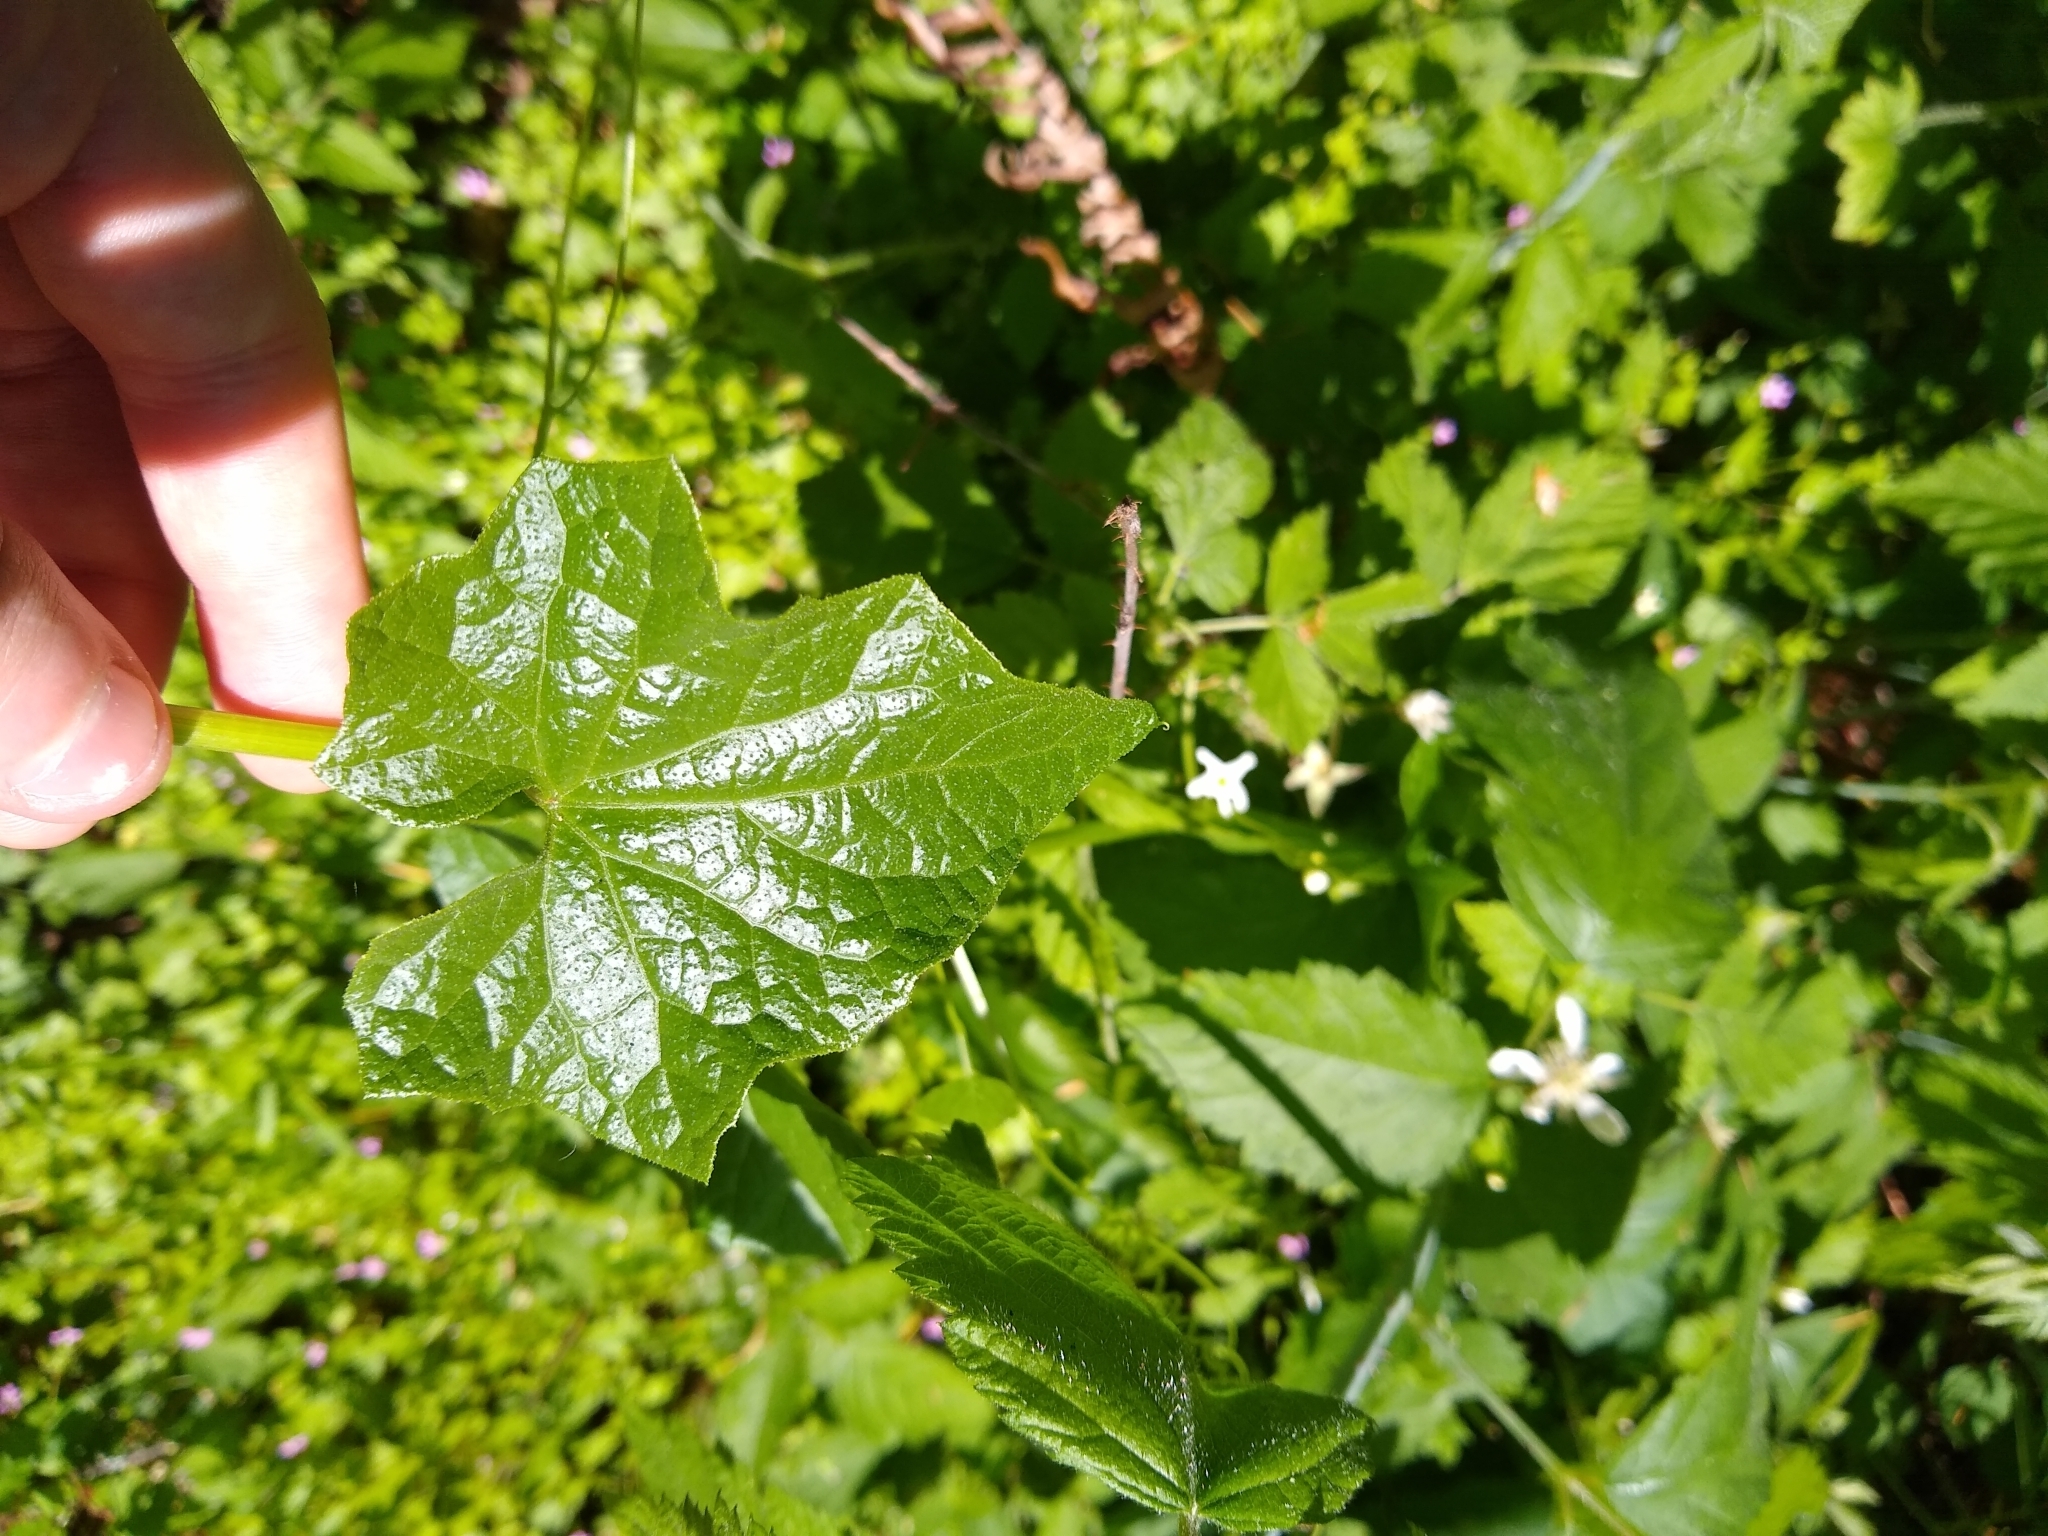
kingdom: Plantae
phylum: Tracheophyta
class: Magnoliopsida
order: Cucurbitales
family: Cucurbitaceae
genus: Marah
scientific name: Marah oregana
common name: Coastal manroot
